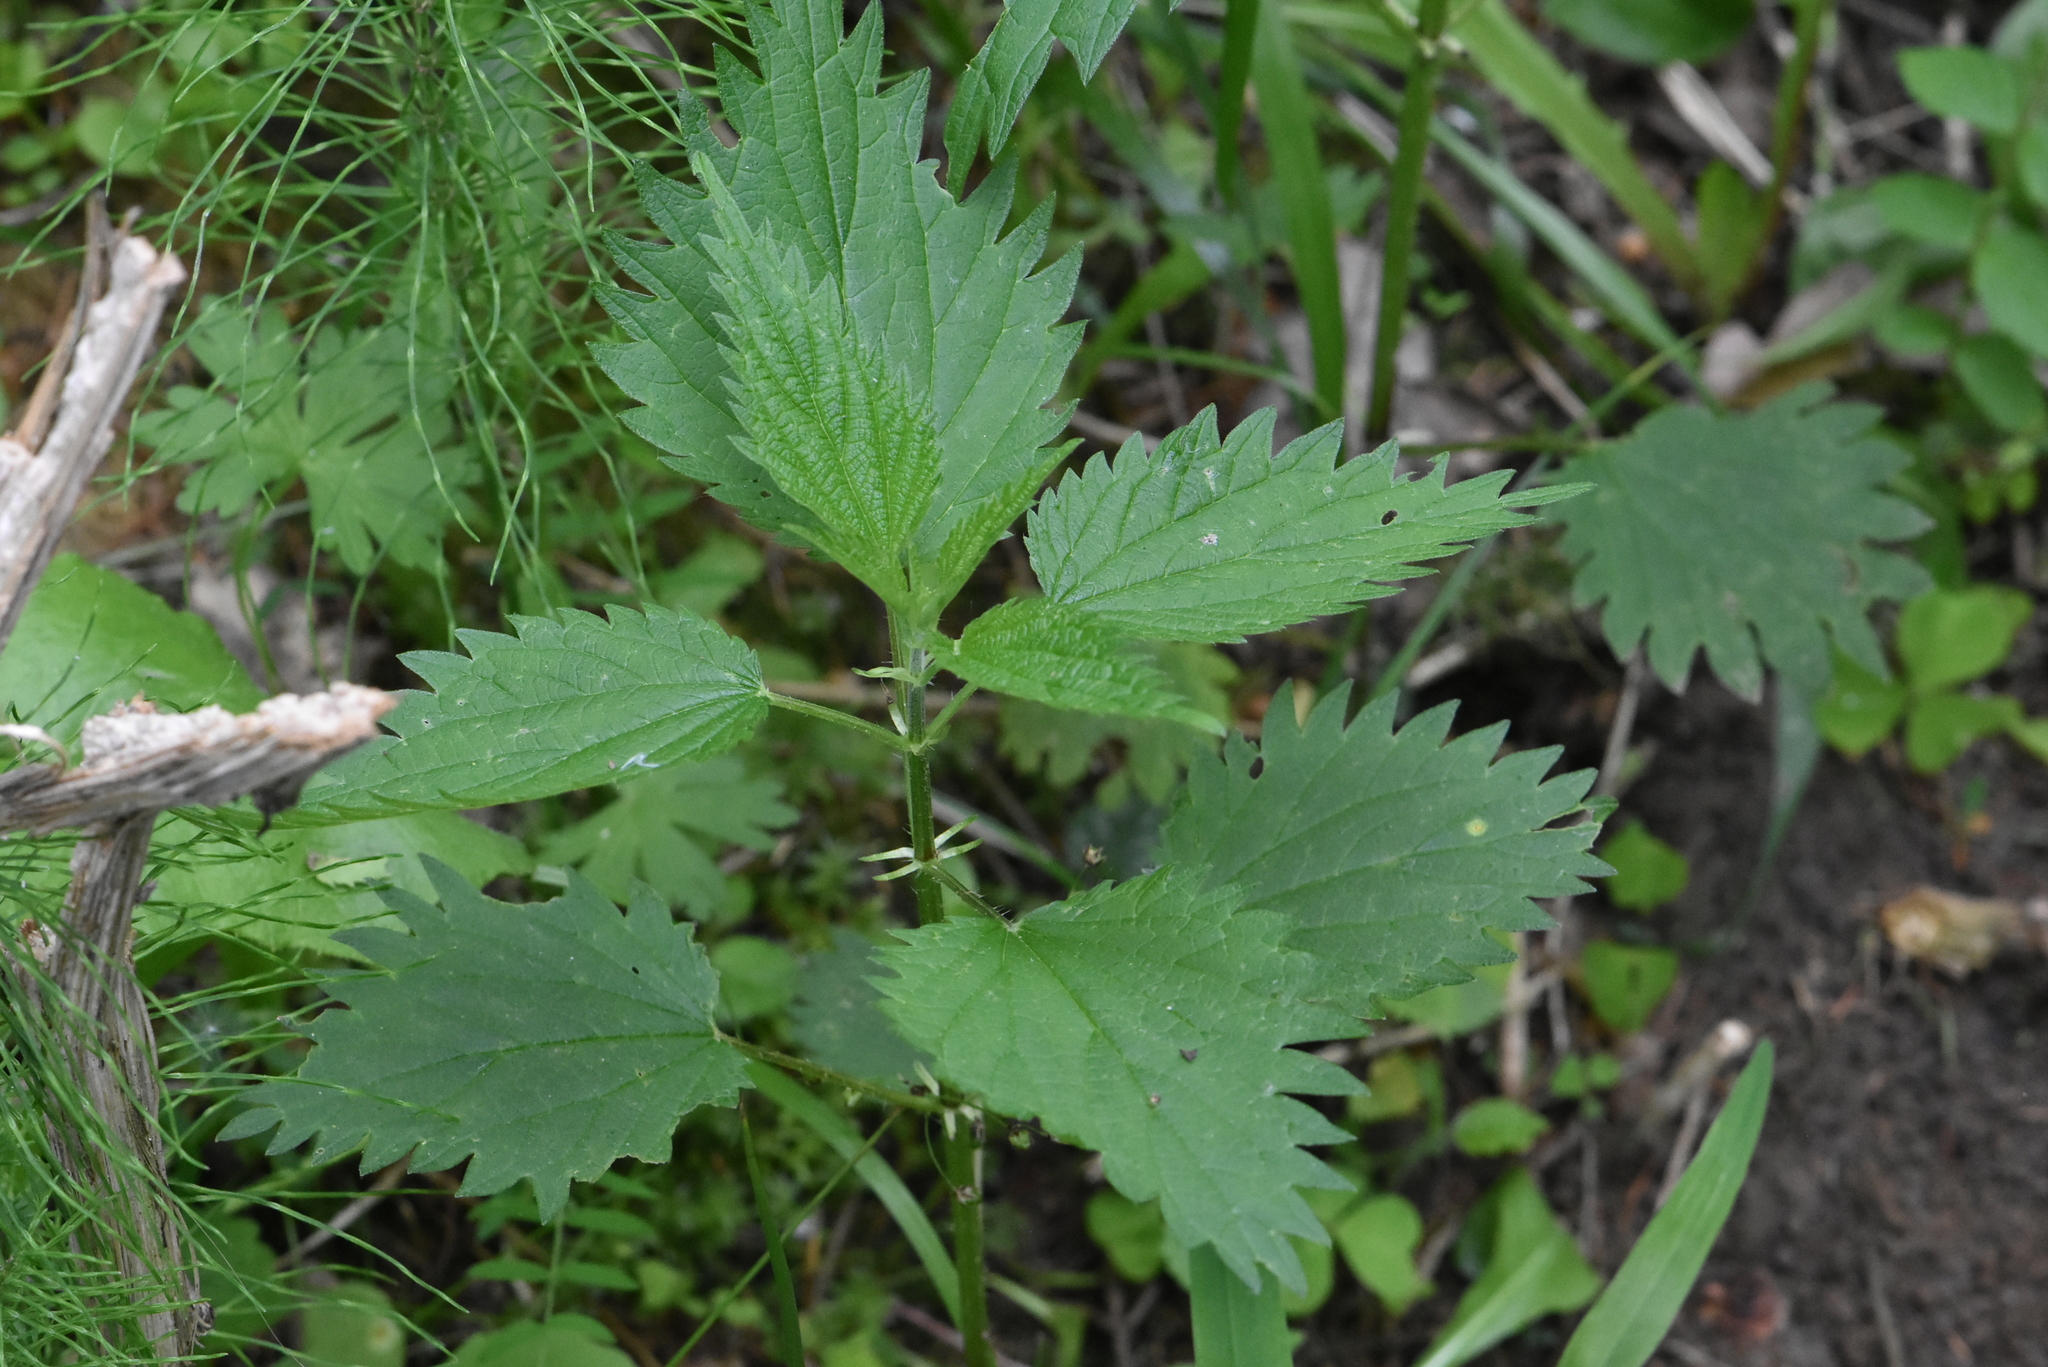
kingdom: Plantae
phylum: Tracheophyta
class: Magnoliopsida
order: Rosales
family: Urticaceae
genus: Urtica
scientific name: Urtica dioica
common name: Common nettle
